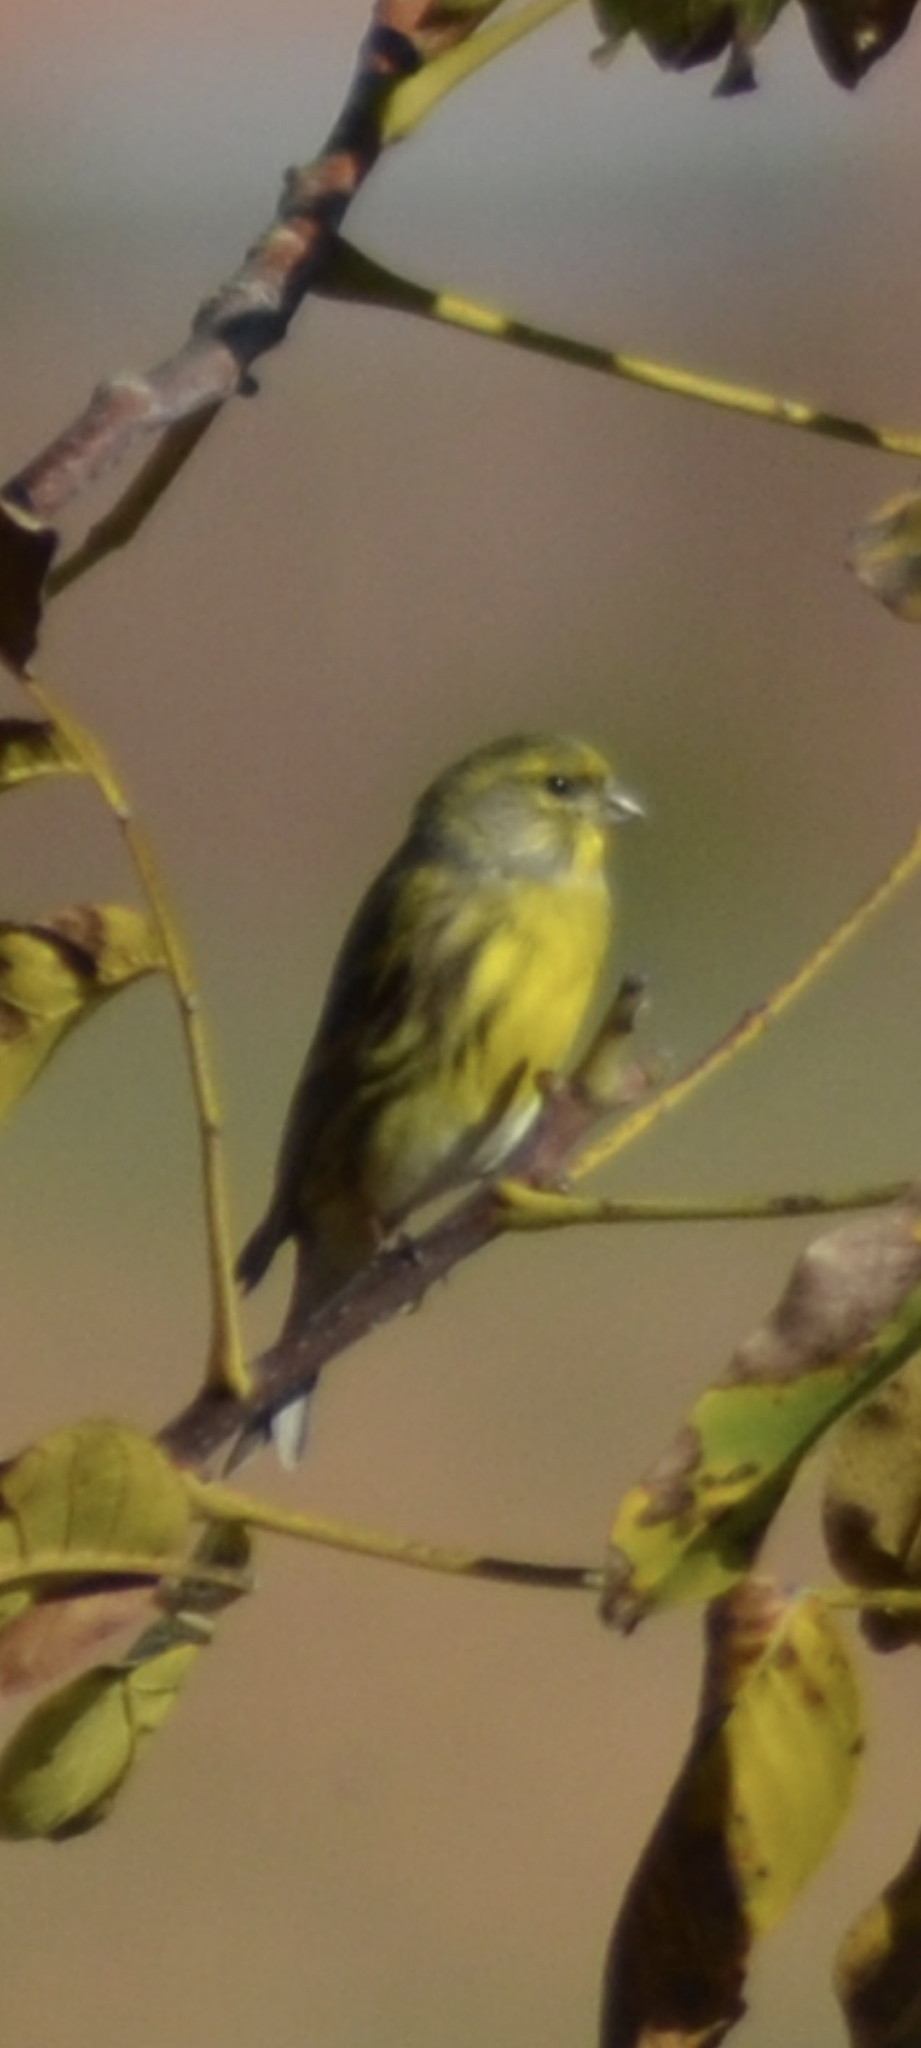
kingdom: Animalia
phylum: Chordata
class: Aves
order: Passeriformes
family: Fringillidae
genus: Serinus
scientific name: Serinus serinus
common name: European serin
